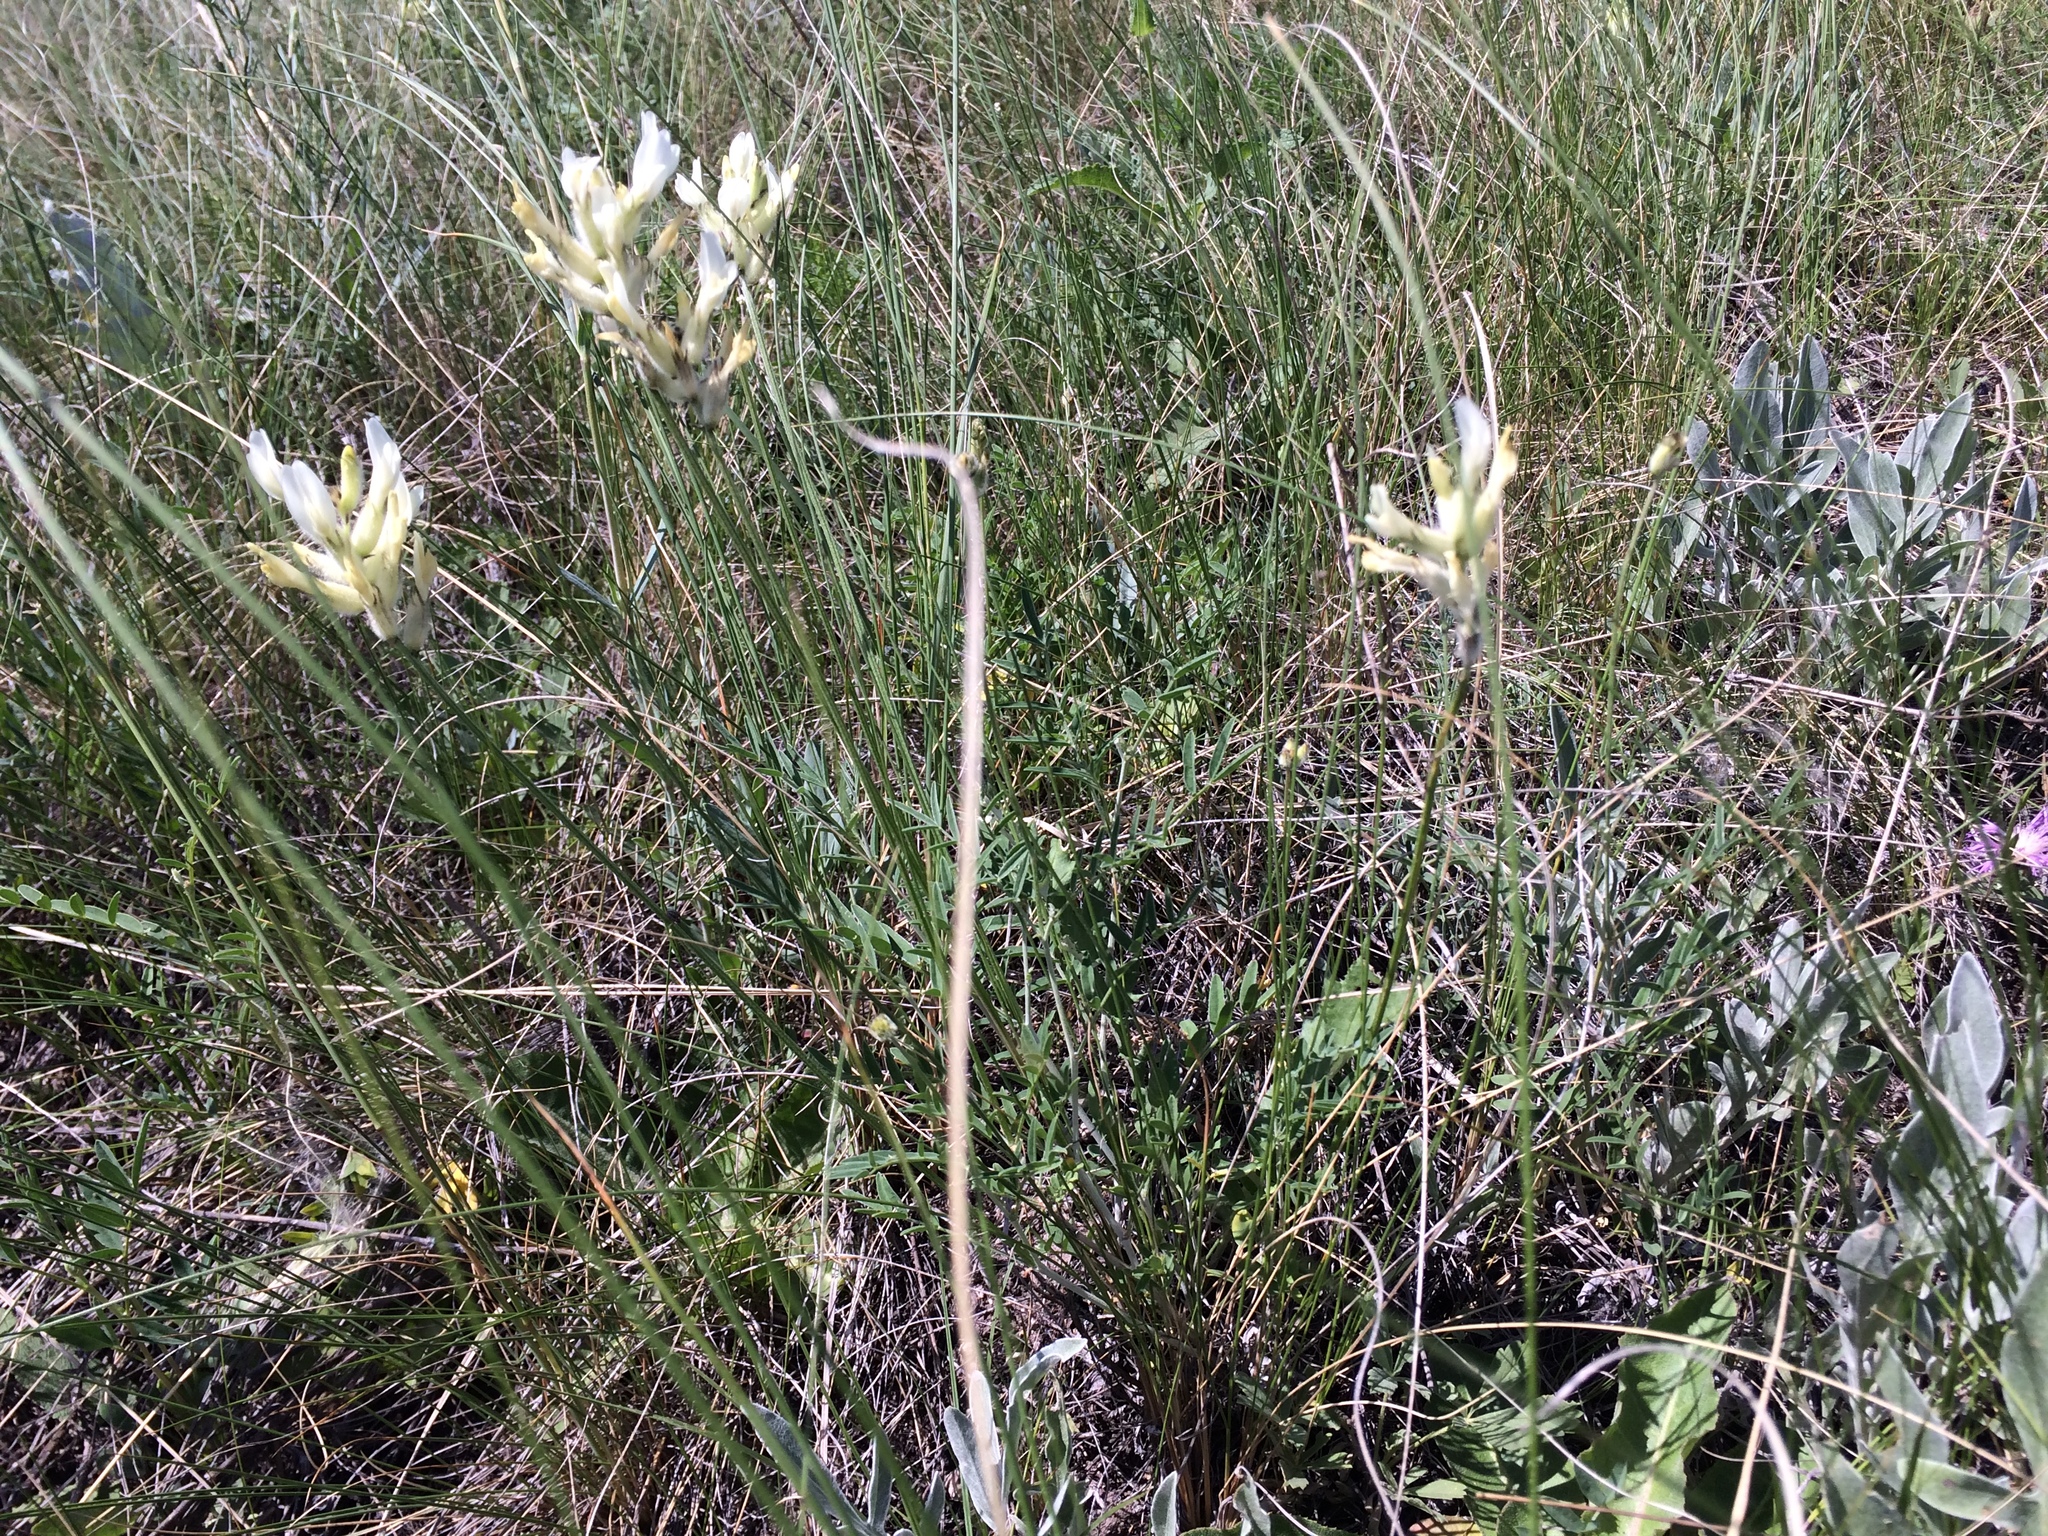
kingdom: Plantae
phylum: Tracheophyta
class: Magnoliopsida
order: Fabales
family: Fabaceae
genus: Astragalus
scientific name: Astragalus zingeri
